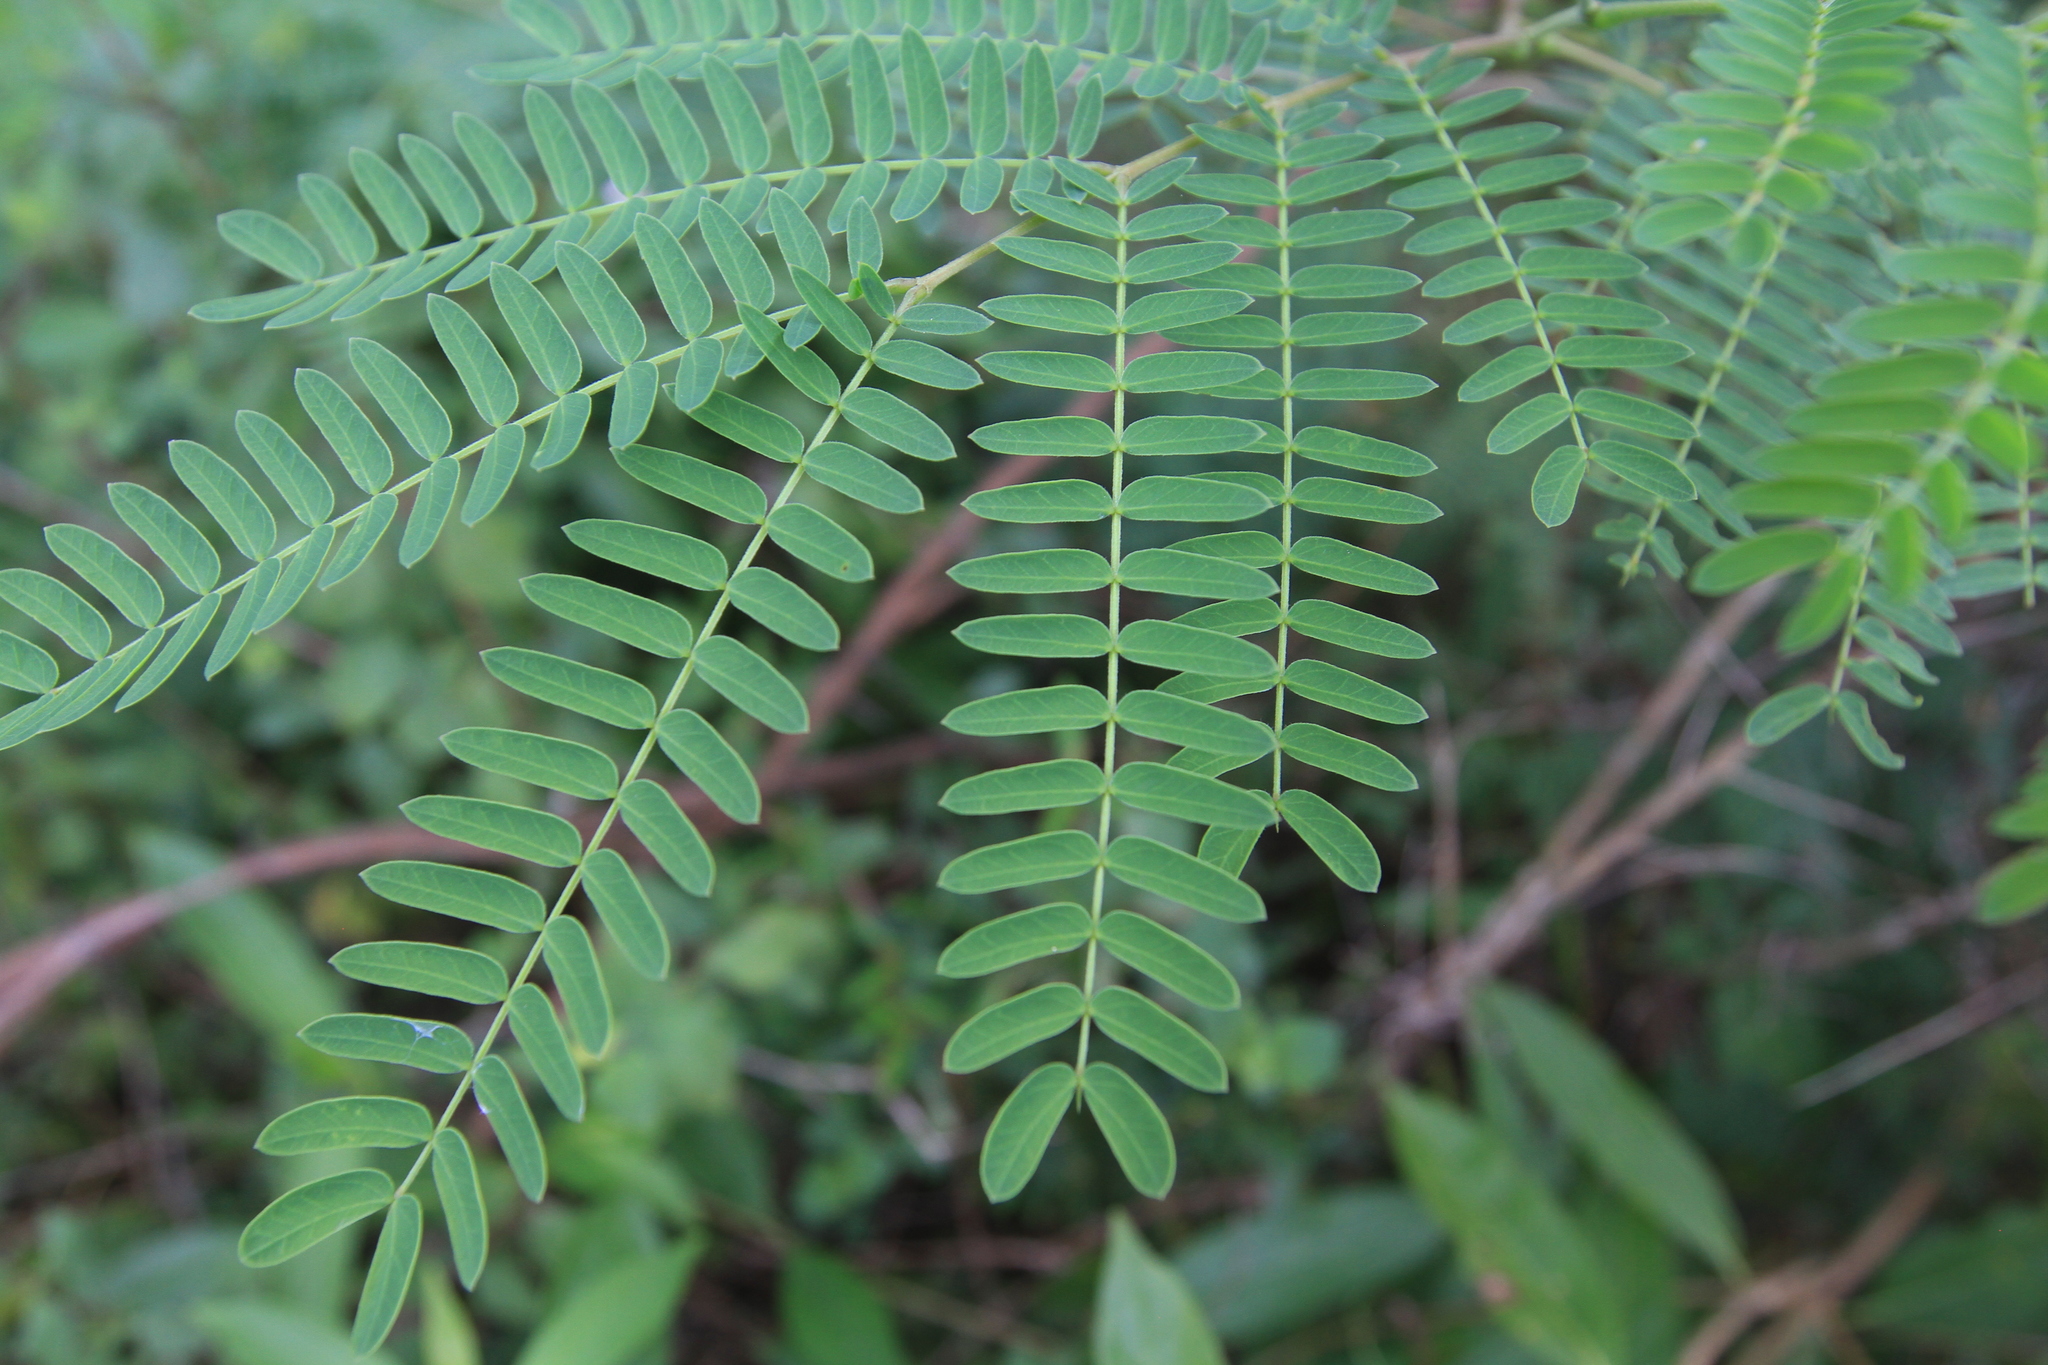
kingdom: Plantae
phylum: Tracheophyta
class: Magnoliopsida
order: Fabales
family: Fabaceae
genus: Leucaena
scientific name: Leucaena leucocephala
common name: White leadtree
